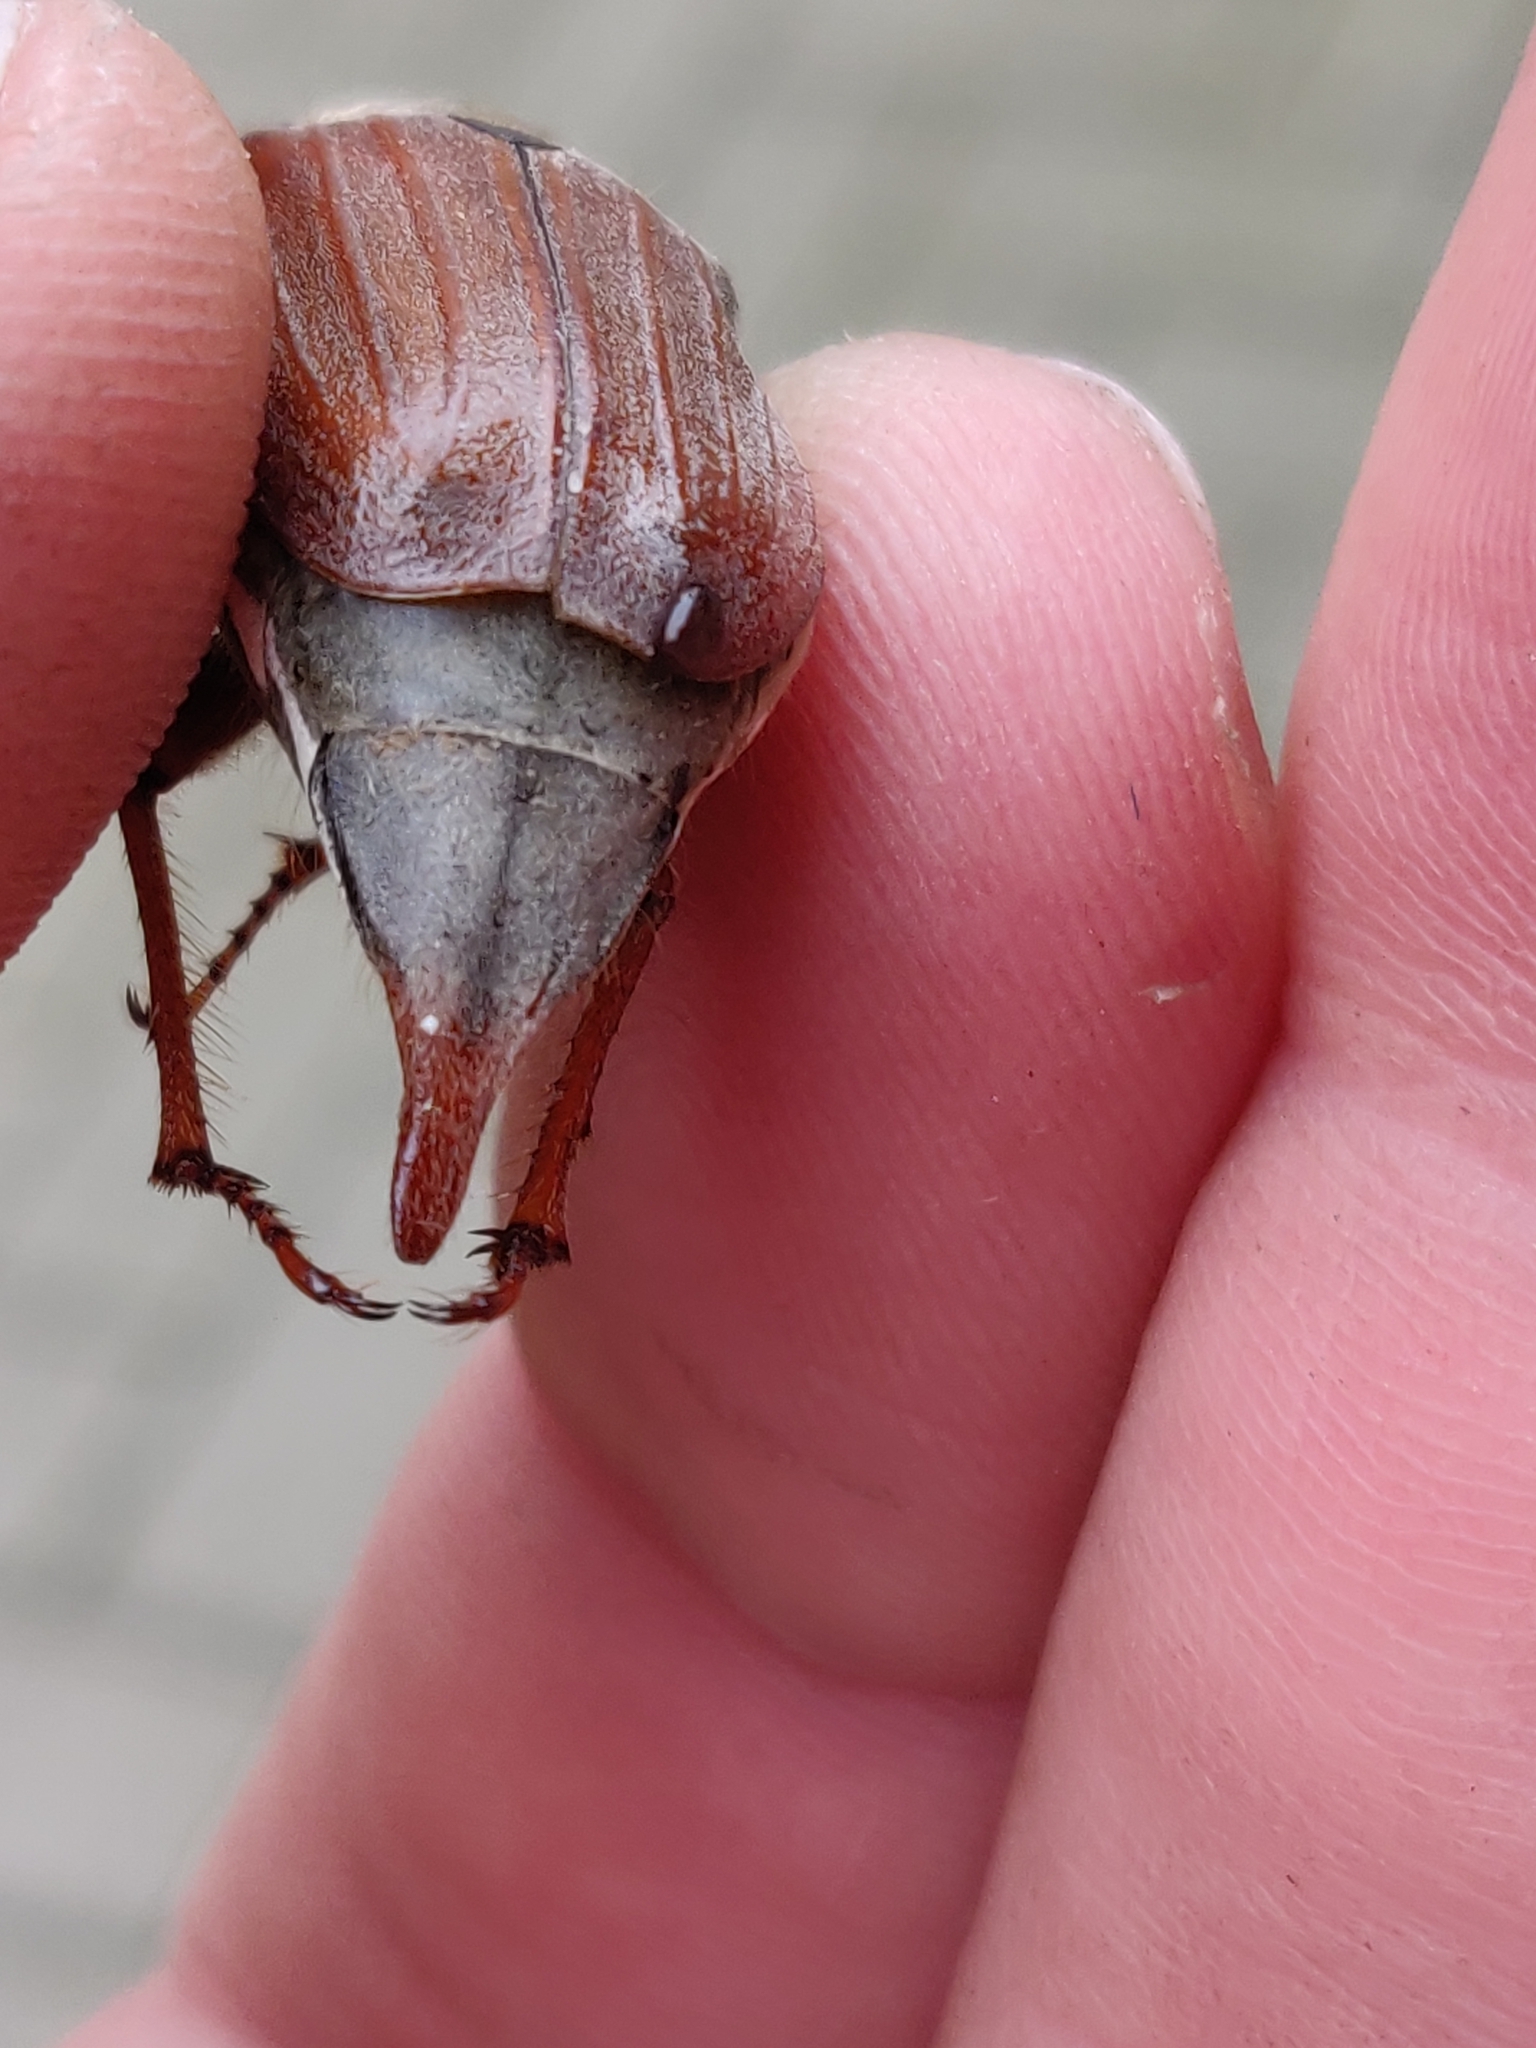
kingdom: Animalia
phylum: Arthropoda
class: Insecta
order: Coleoptera
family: Scarabaeidae
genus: Melolontha
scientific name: Melolontha melolontha
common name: Cockchafer maybeetle
